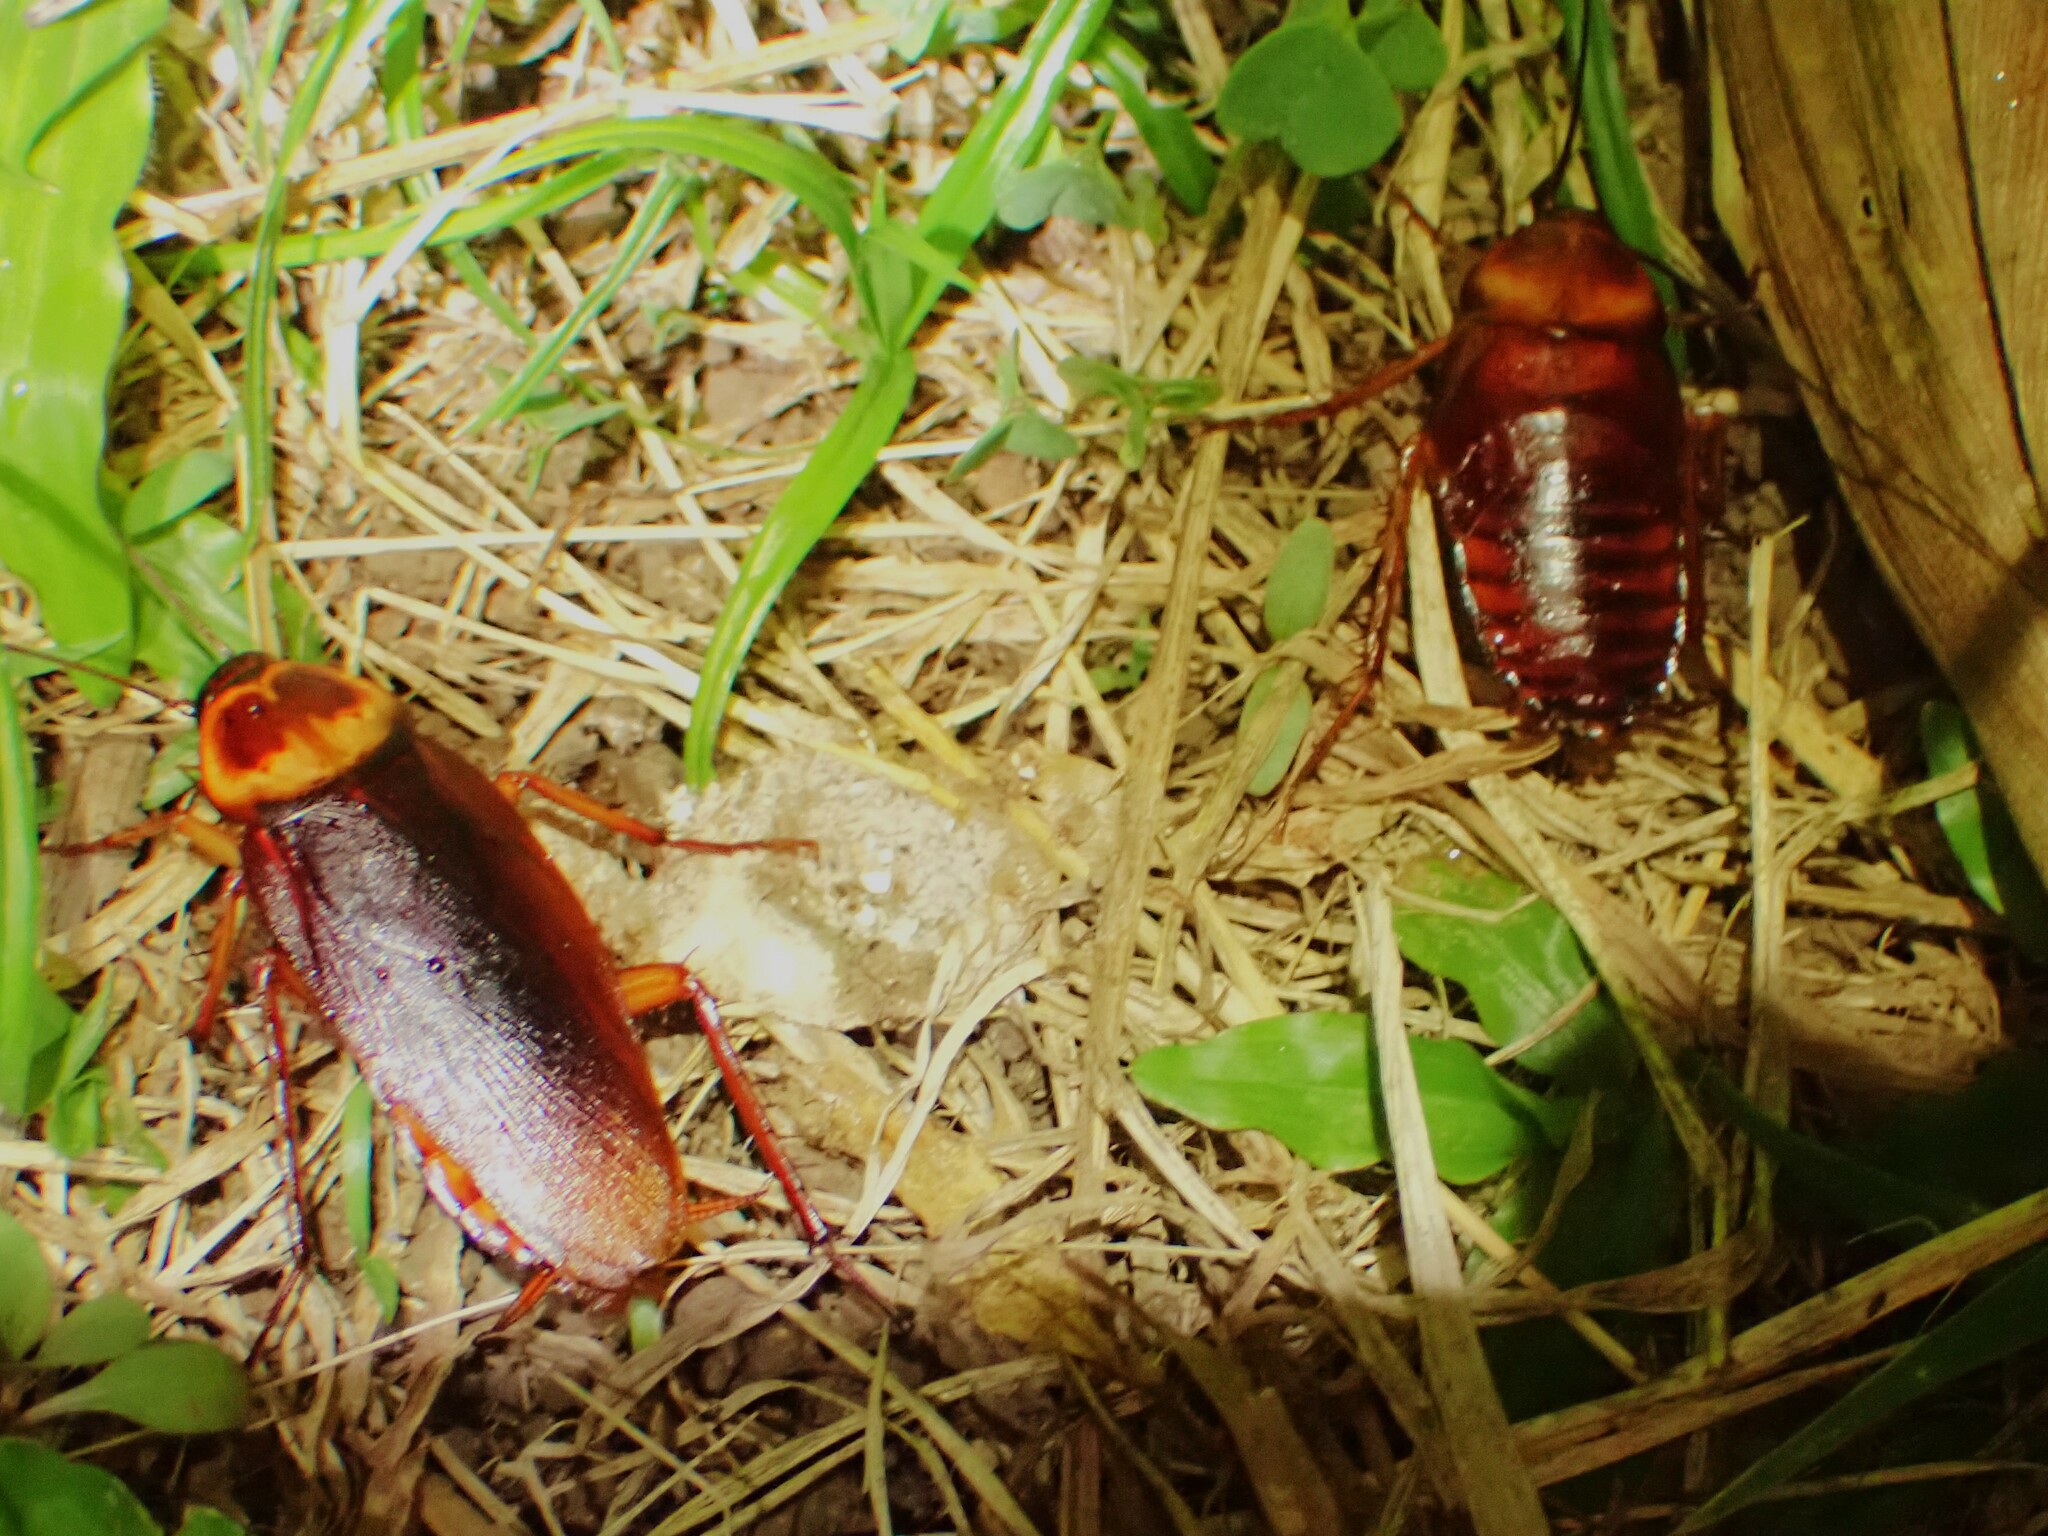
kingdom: Animalia
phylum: Arthropoda
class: Insecta
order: Blattodea
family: Blattidae
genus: Periplaneta
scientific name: Periplaneta americana
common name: American cockroach
